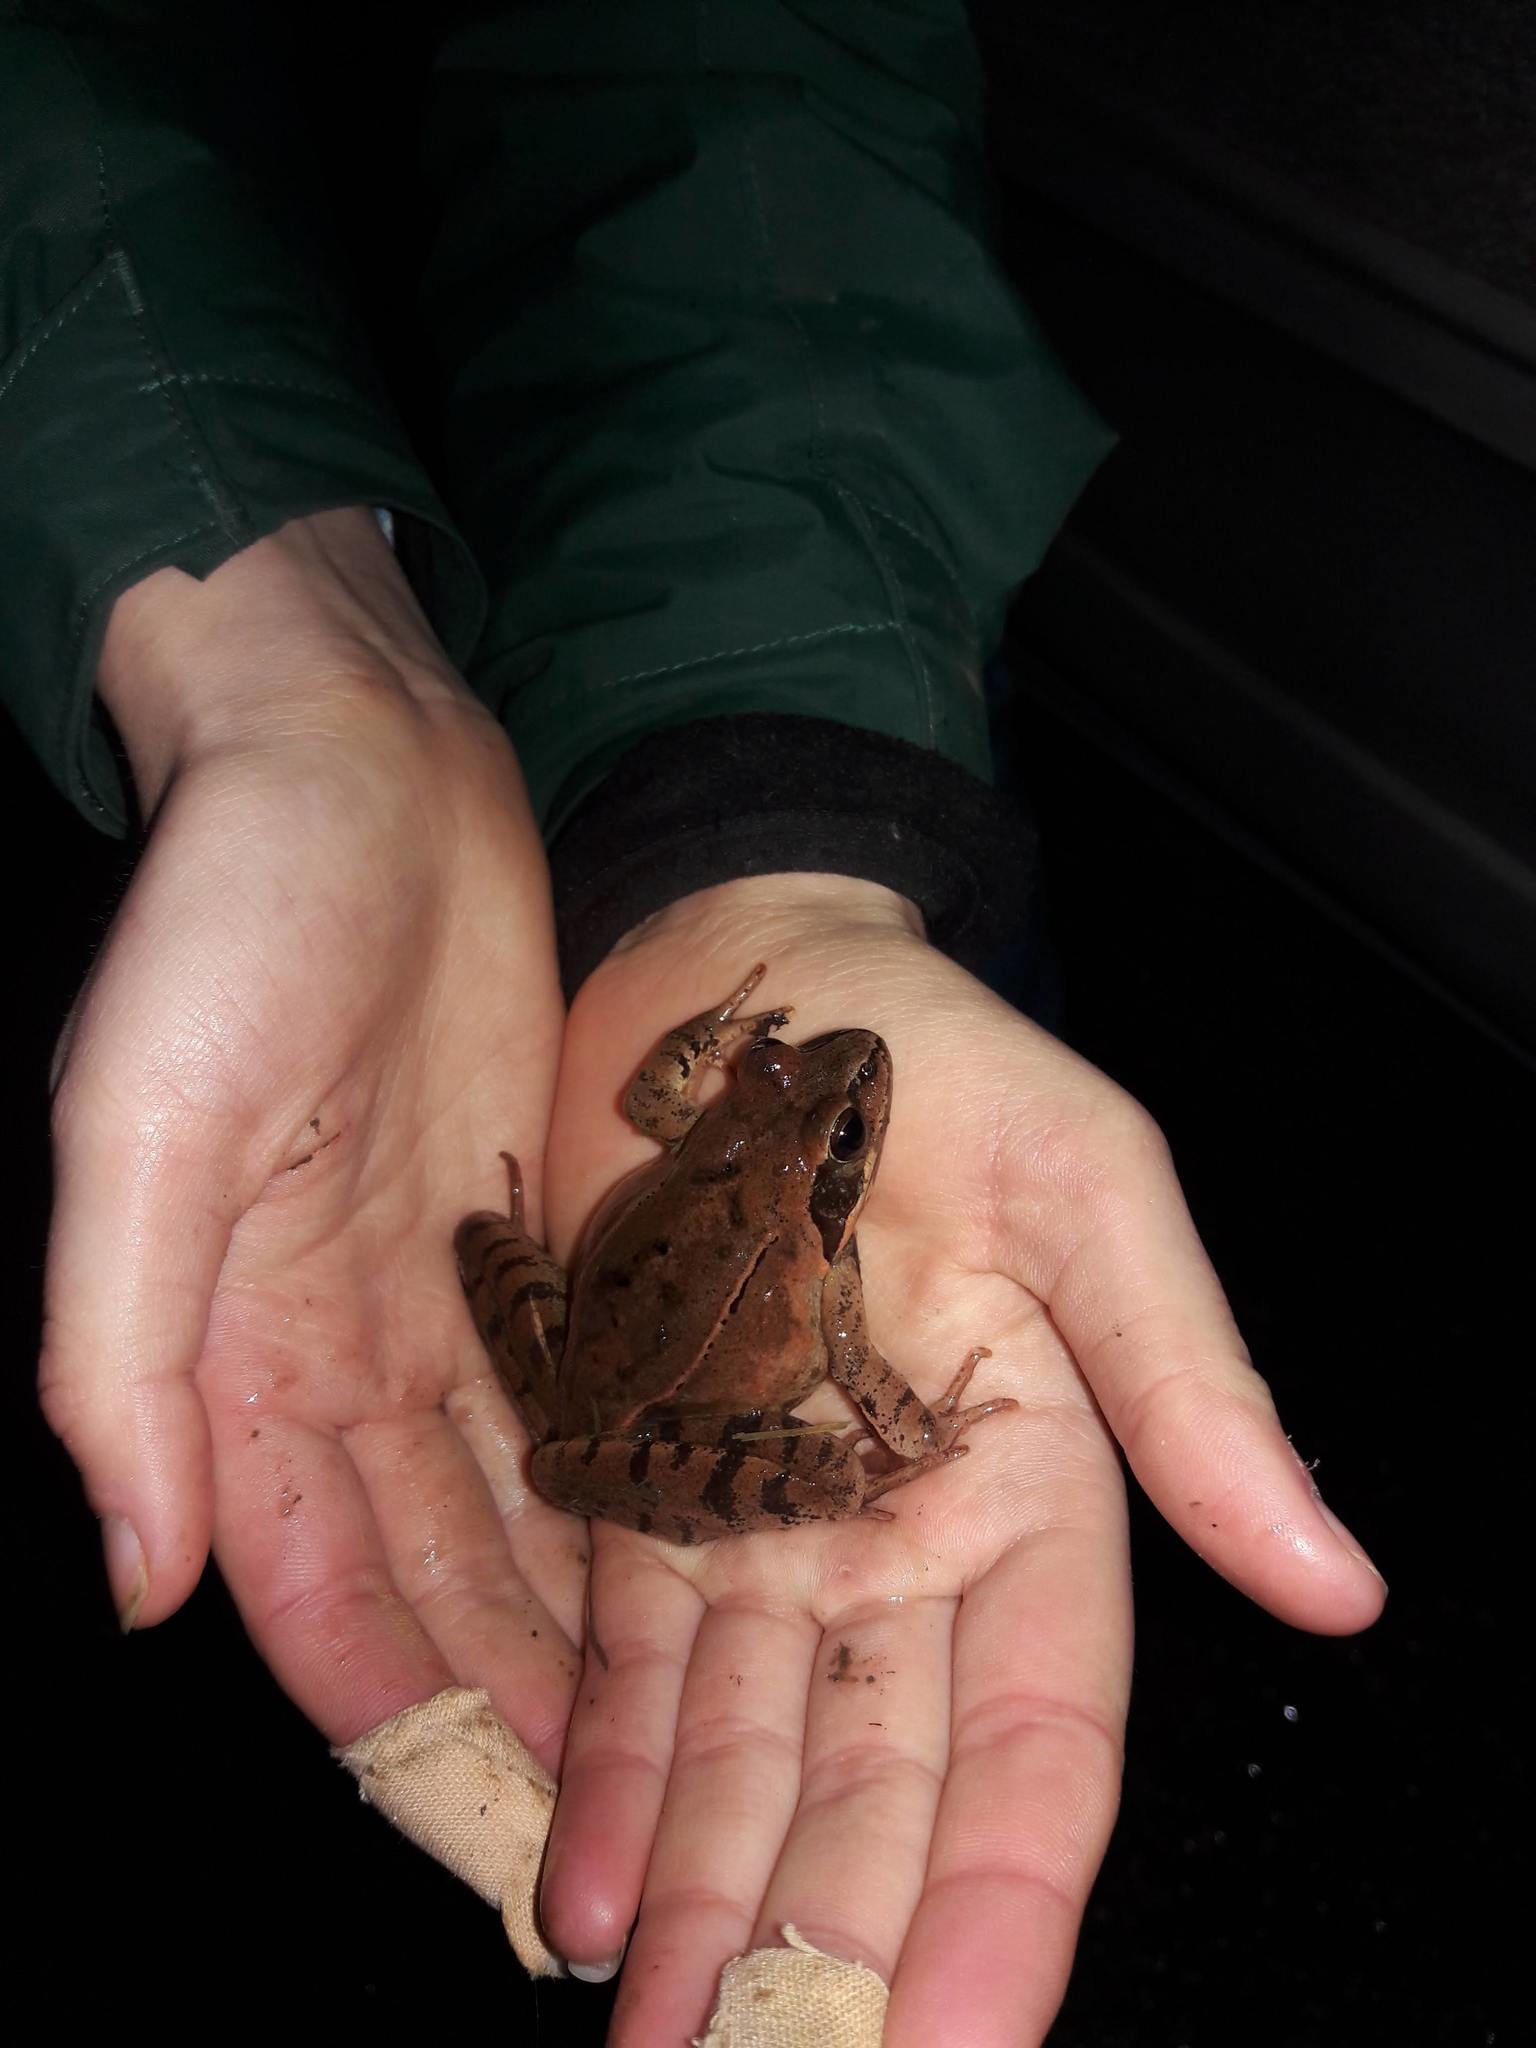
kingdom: Animalia
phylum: Chordata
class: Amphibia
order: Anura
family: Ranidae
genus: Rana
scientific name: Rana dalmatina
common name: Agile frog
